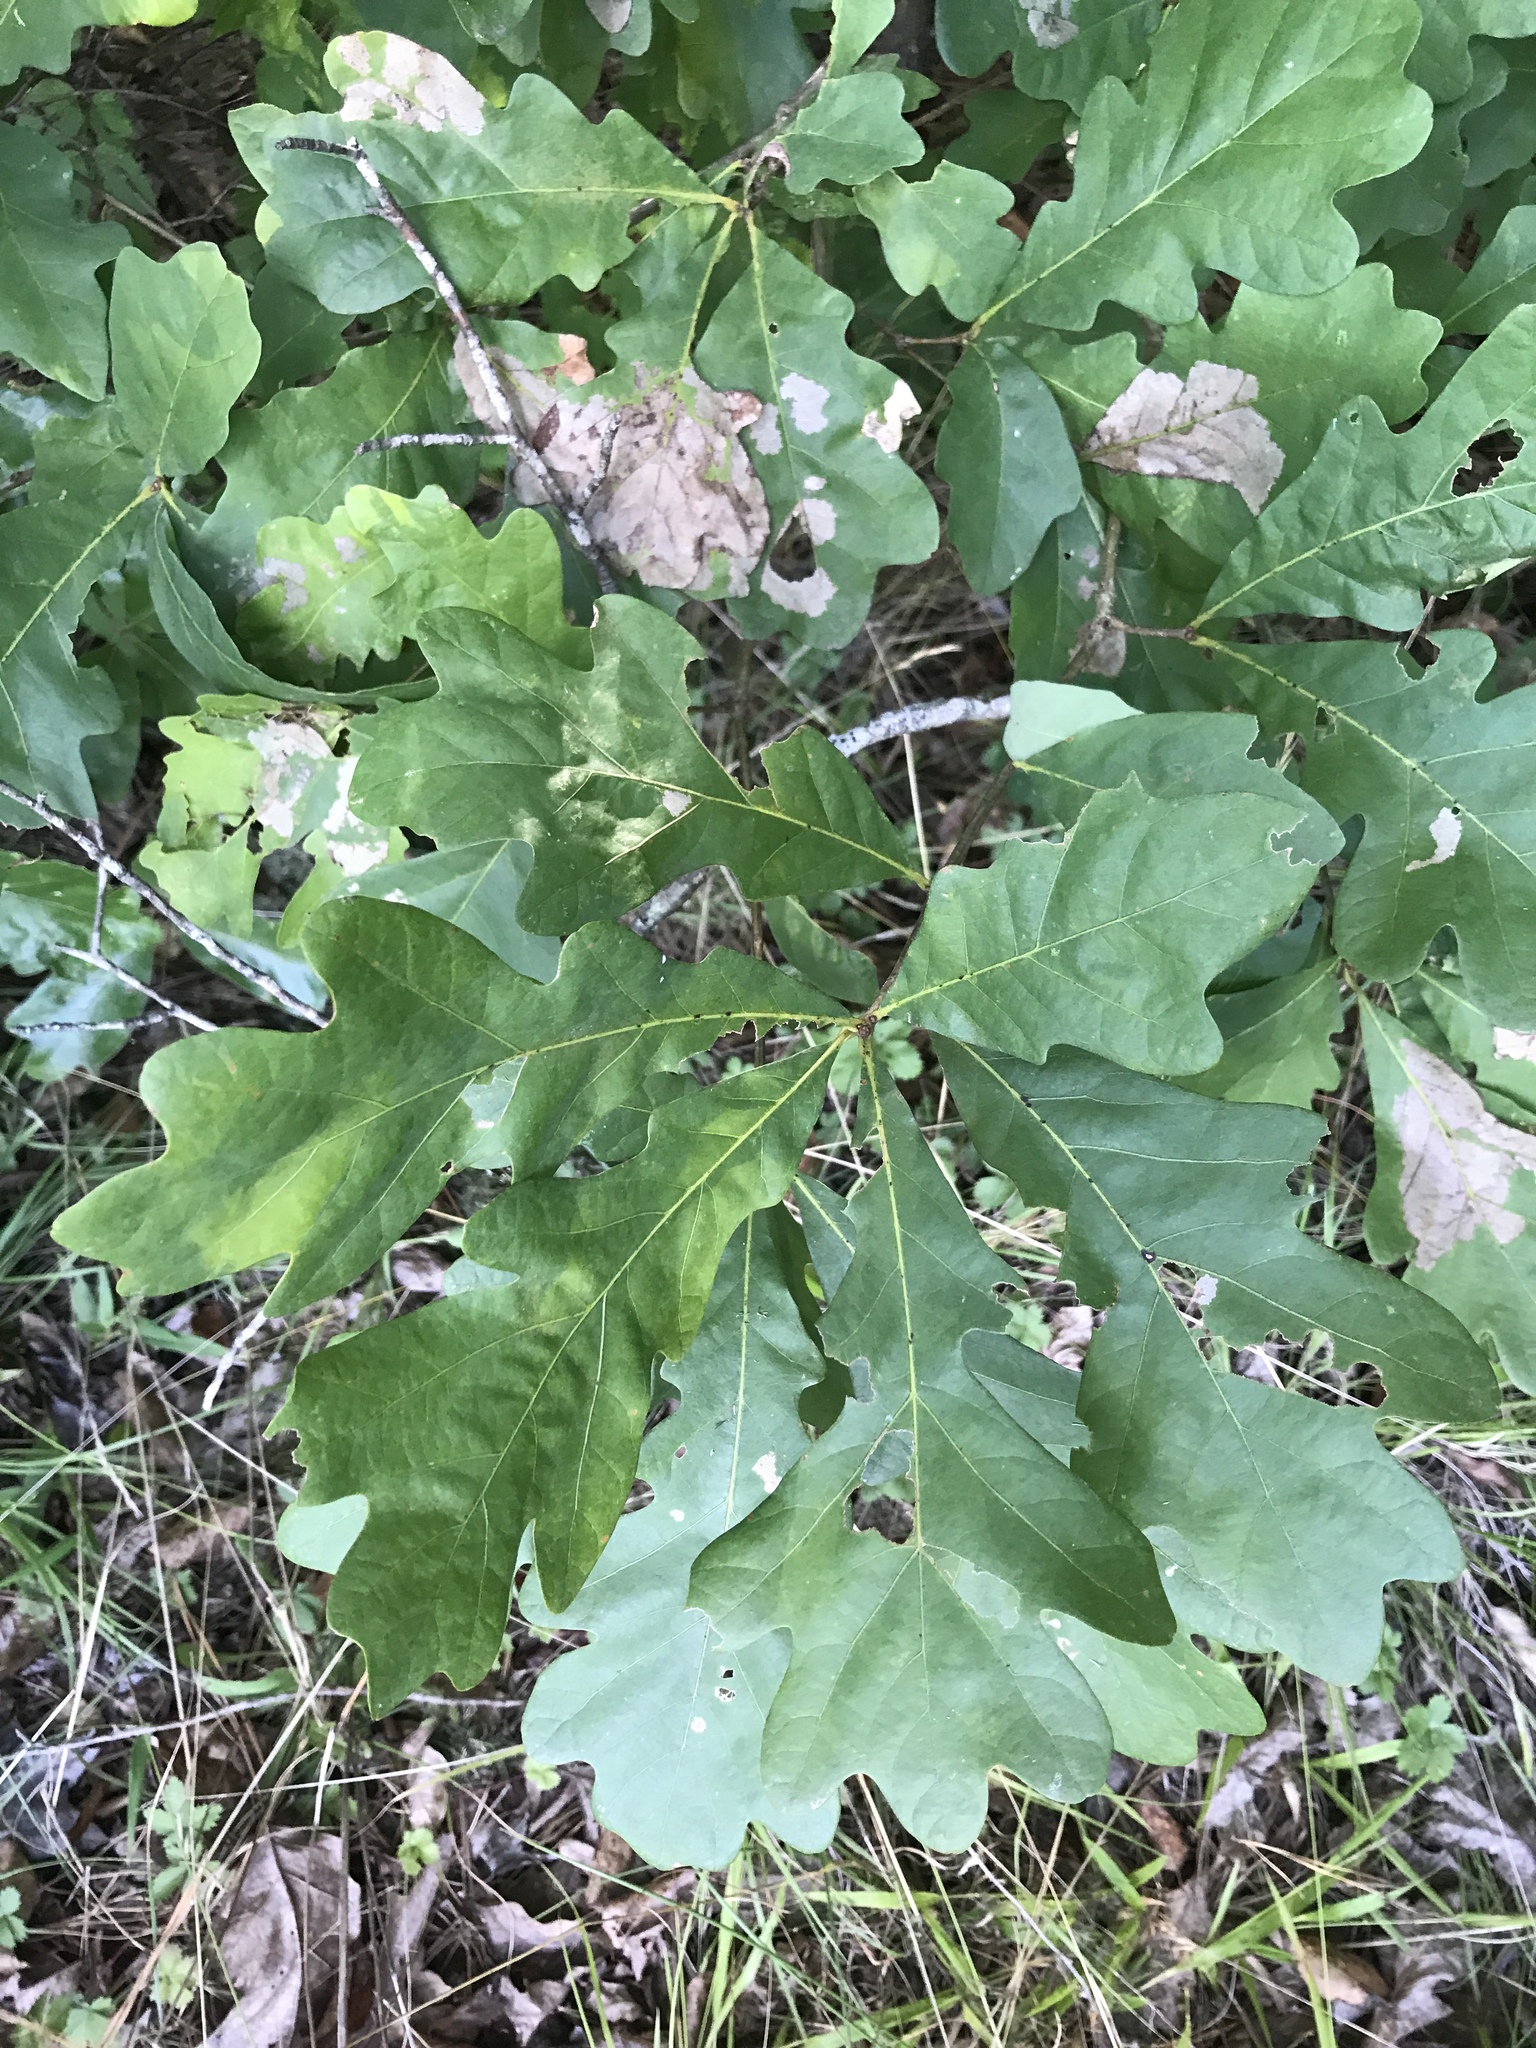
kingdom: Plantae
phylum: Tracheophyta
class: Magnoliopsida
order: Fagales
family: Fagaceae
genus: Quercus
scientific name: Quercus alba
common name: White oak
